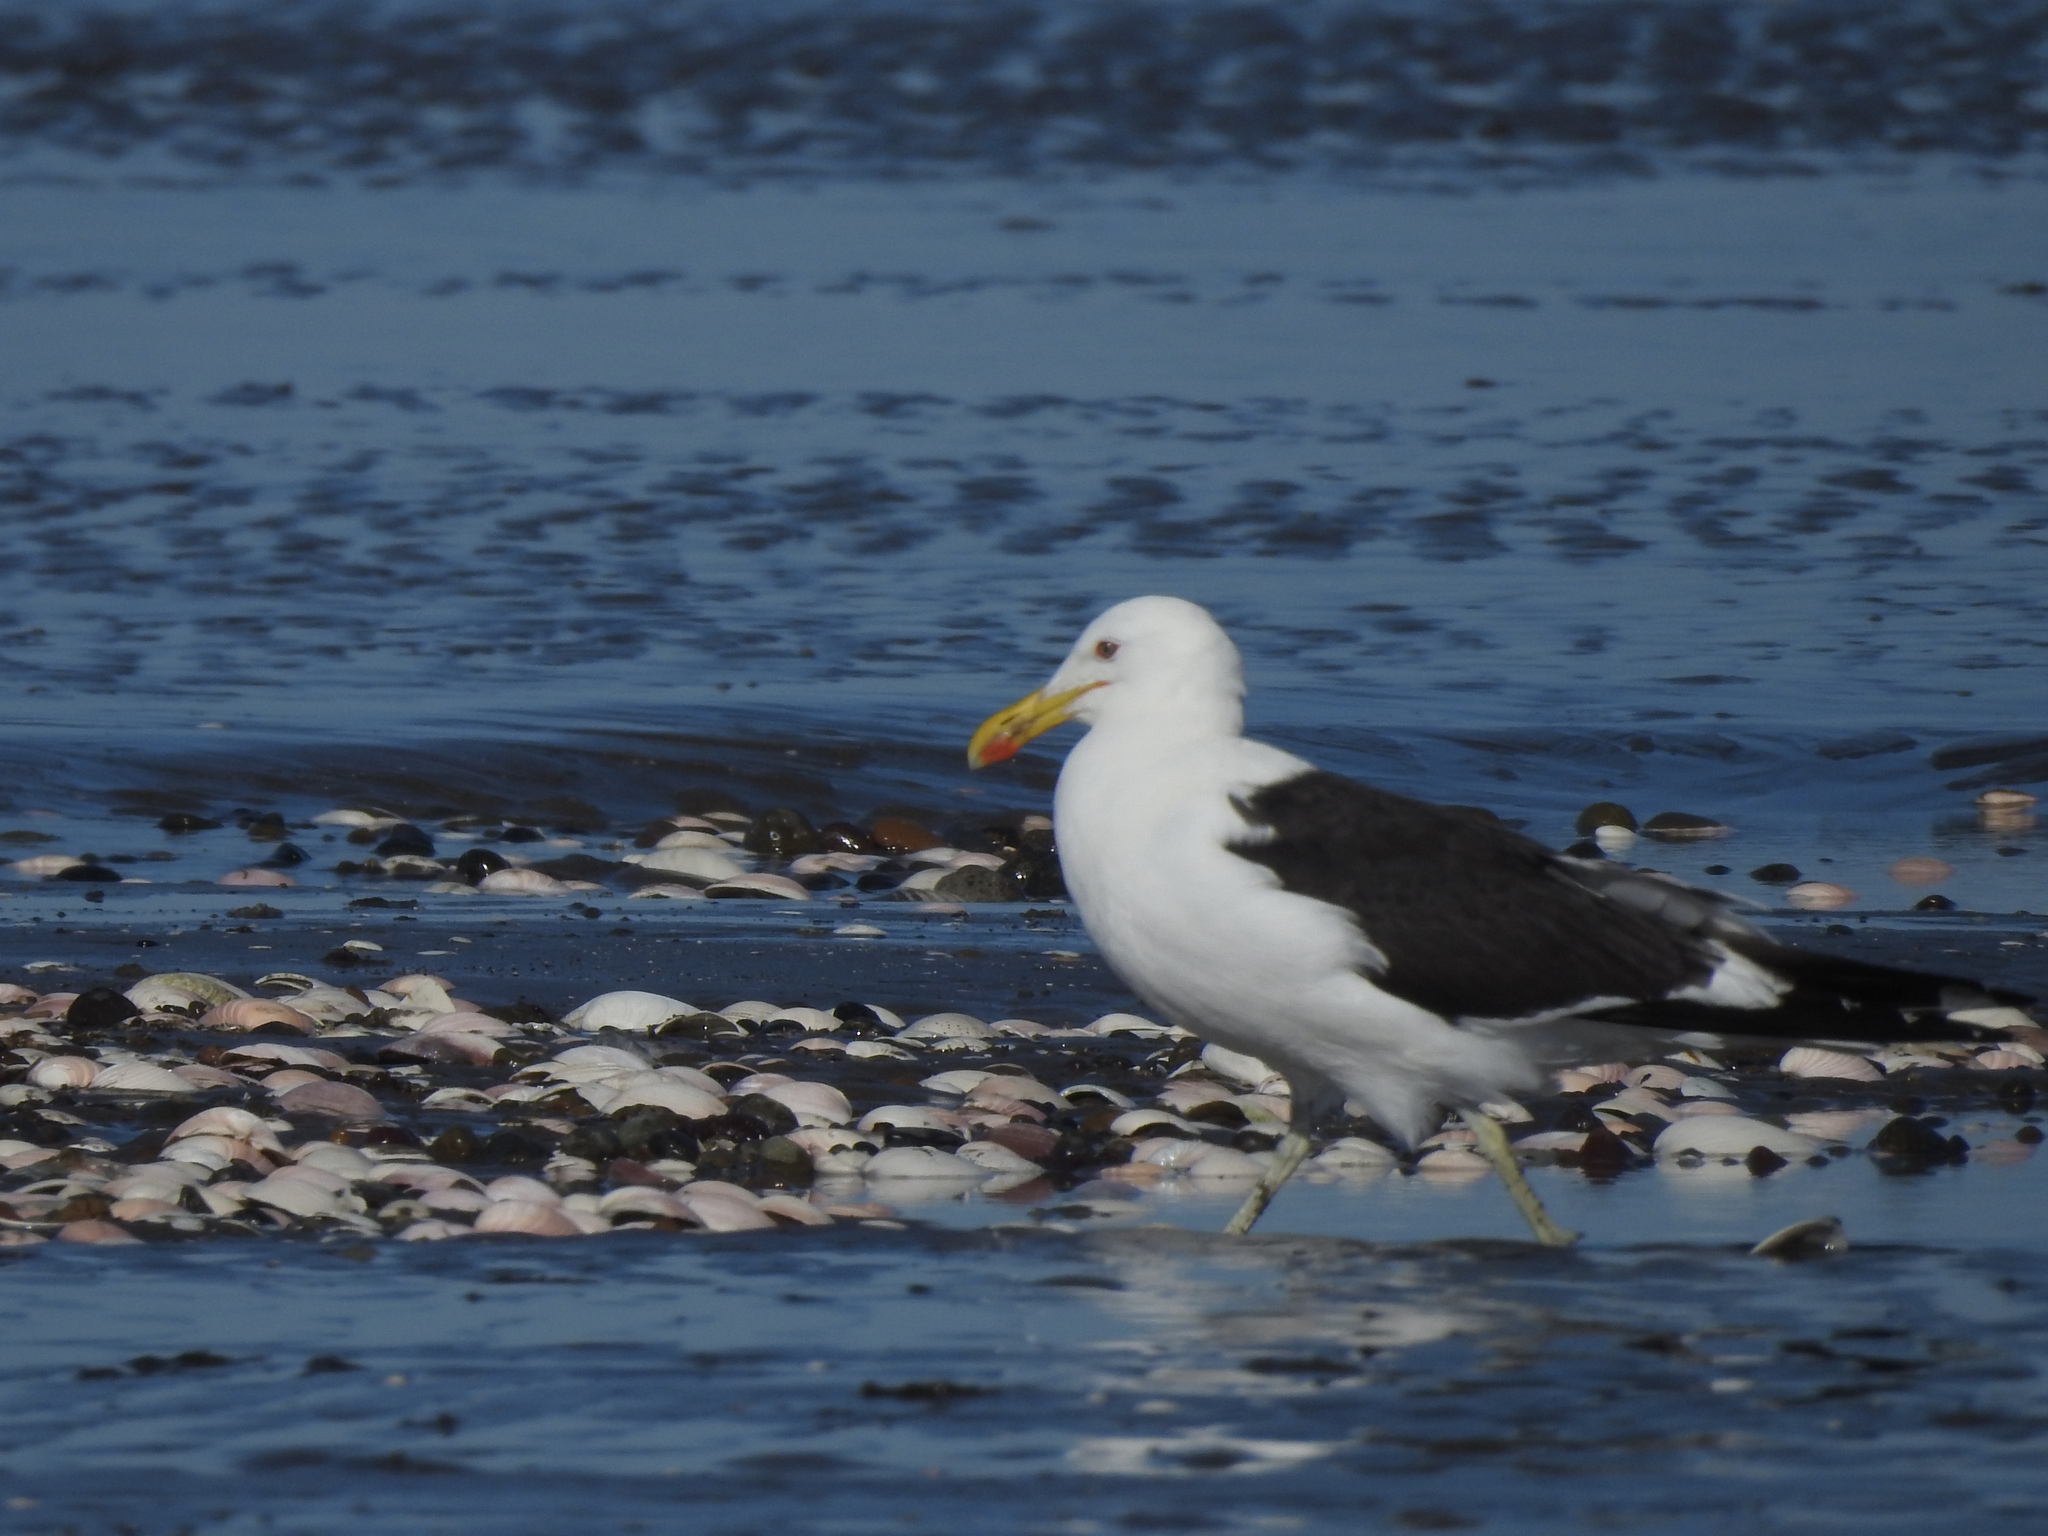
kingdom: Animalia
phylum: Chordata
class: Aves
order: Charadriiformes
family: Laridae
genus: Larus
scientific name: Larus dominicanus
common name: Kelp gull
